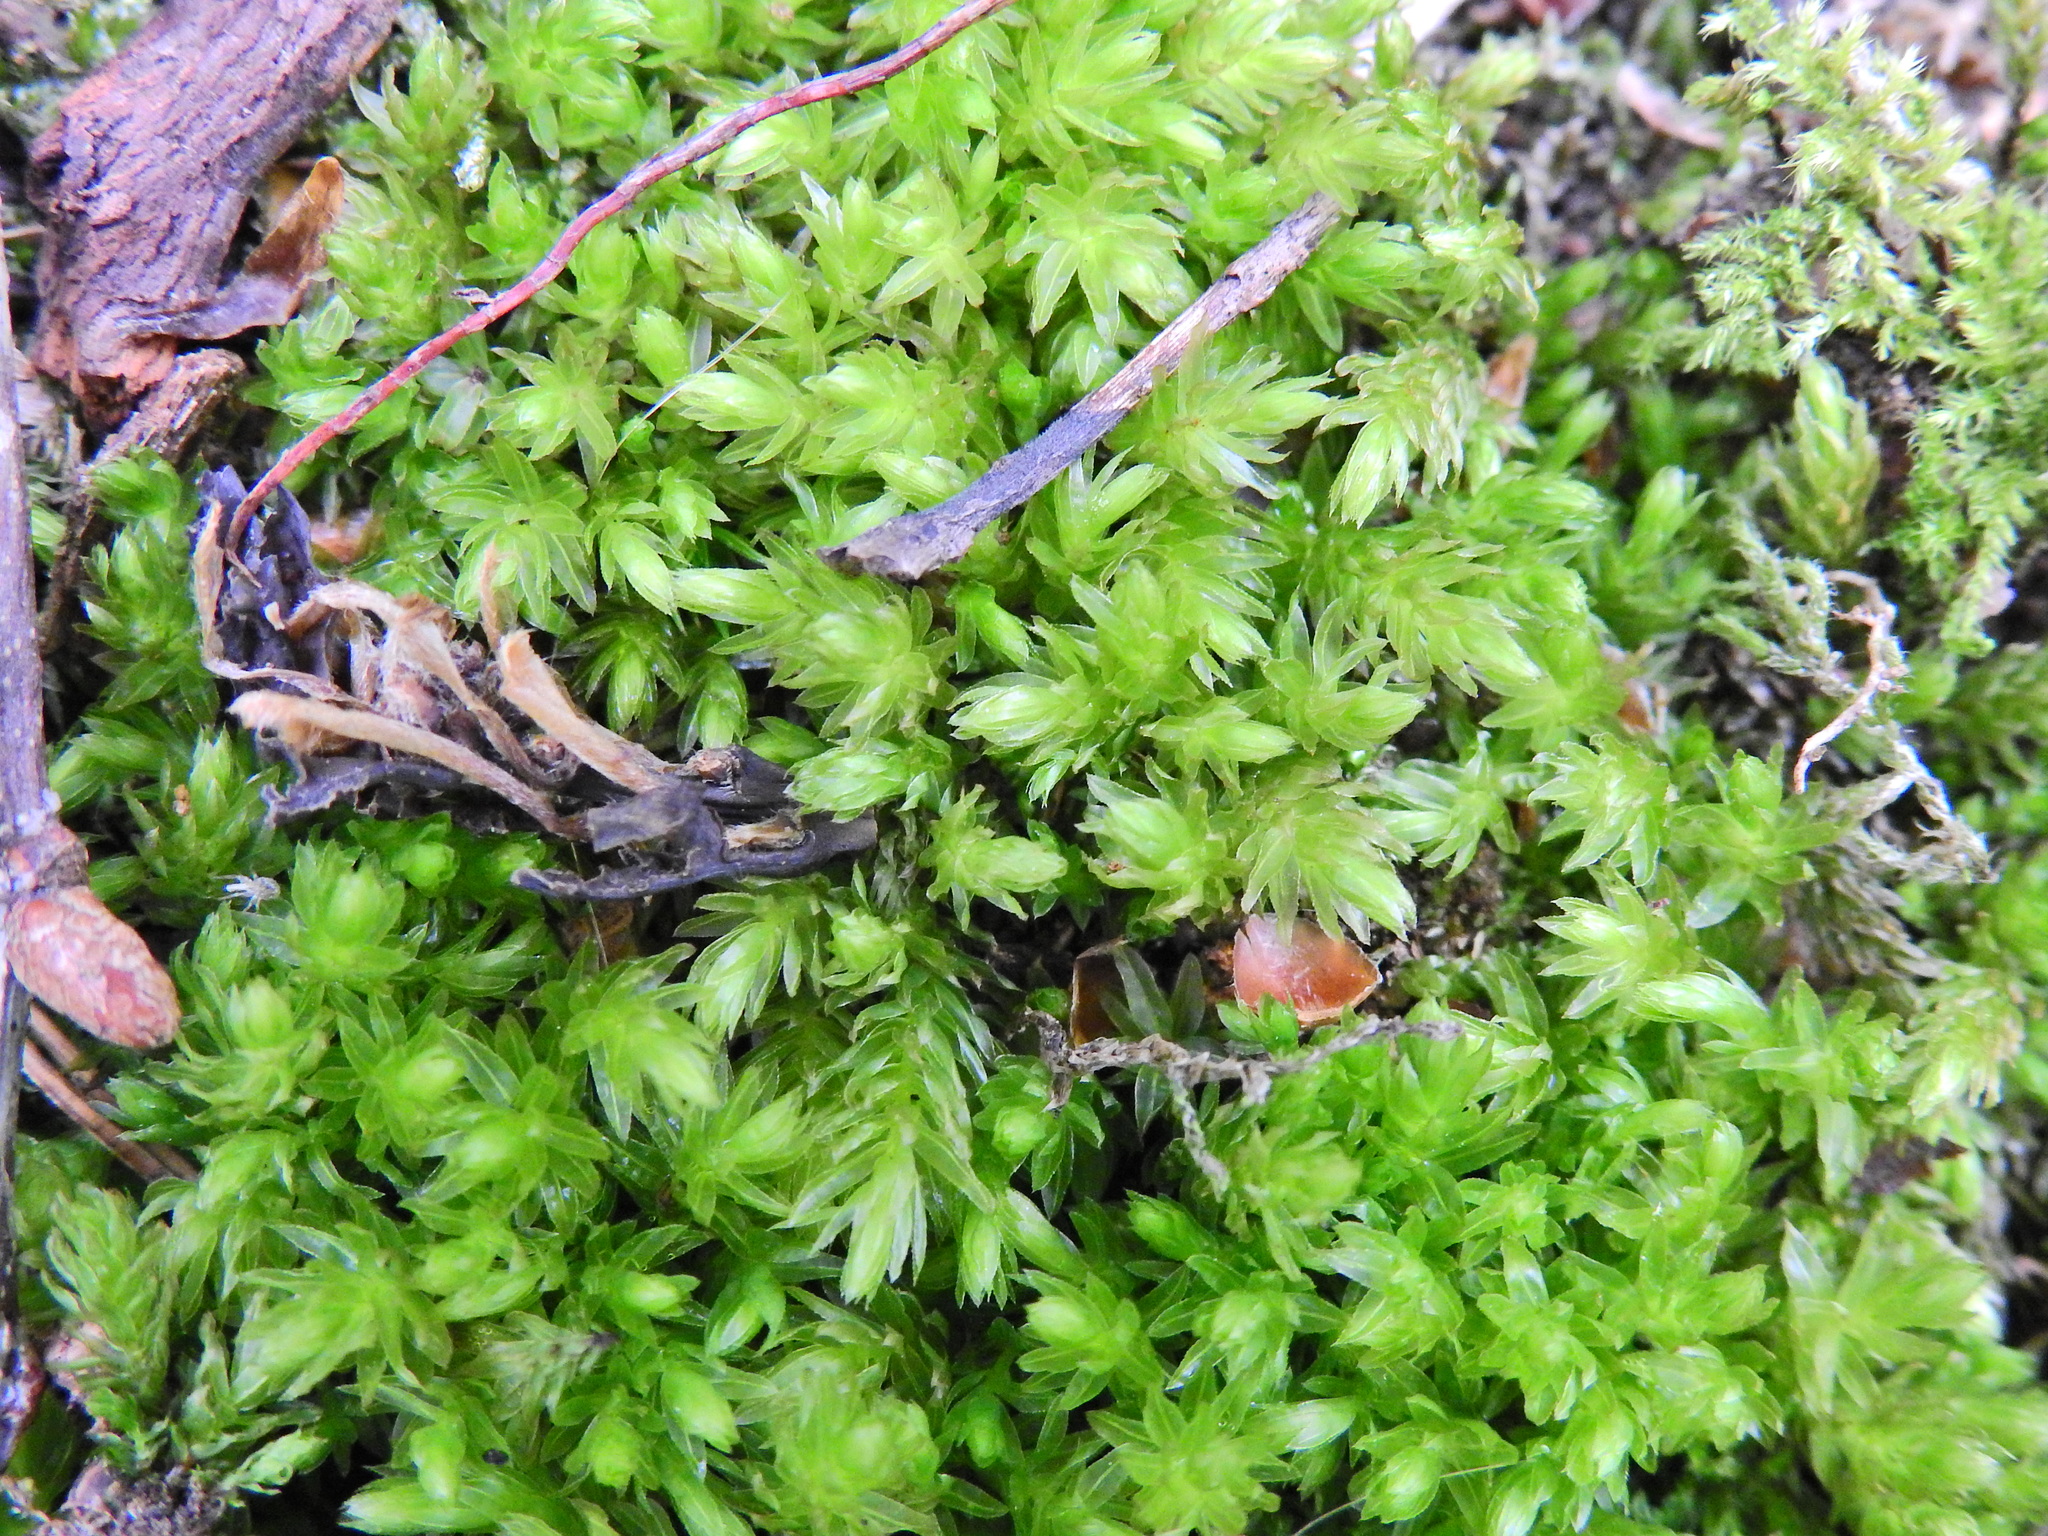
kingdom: Plantae
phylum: Bryophyta
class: Bryopsida
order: Bryales
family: Mniaceae
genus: Mnium
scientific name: Mnium hornum
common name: Swan's-neck leafy moss
